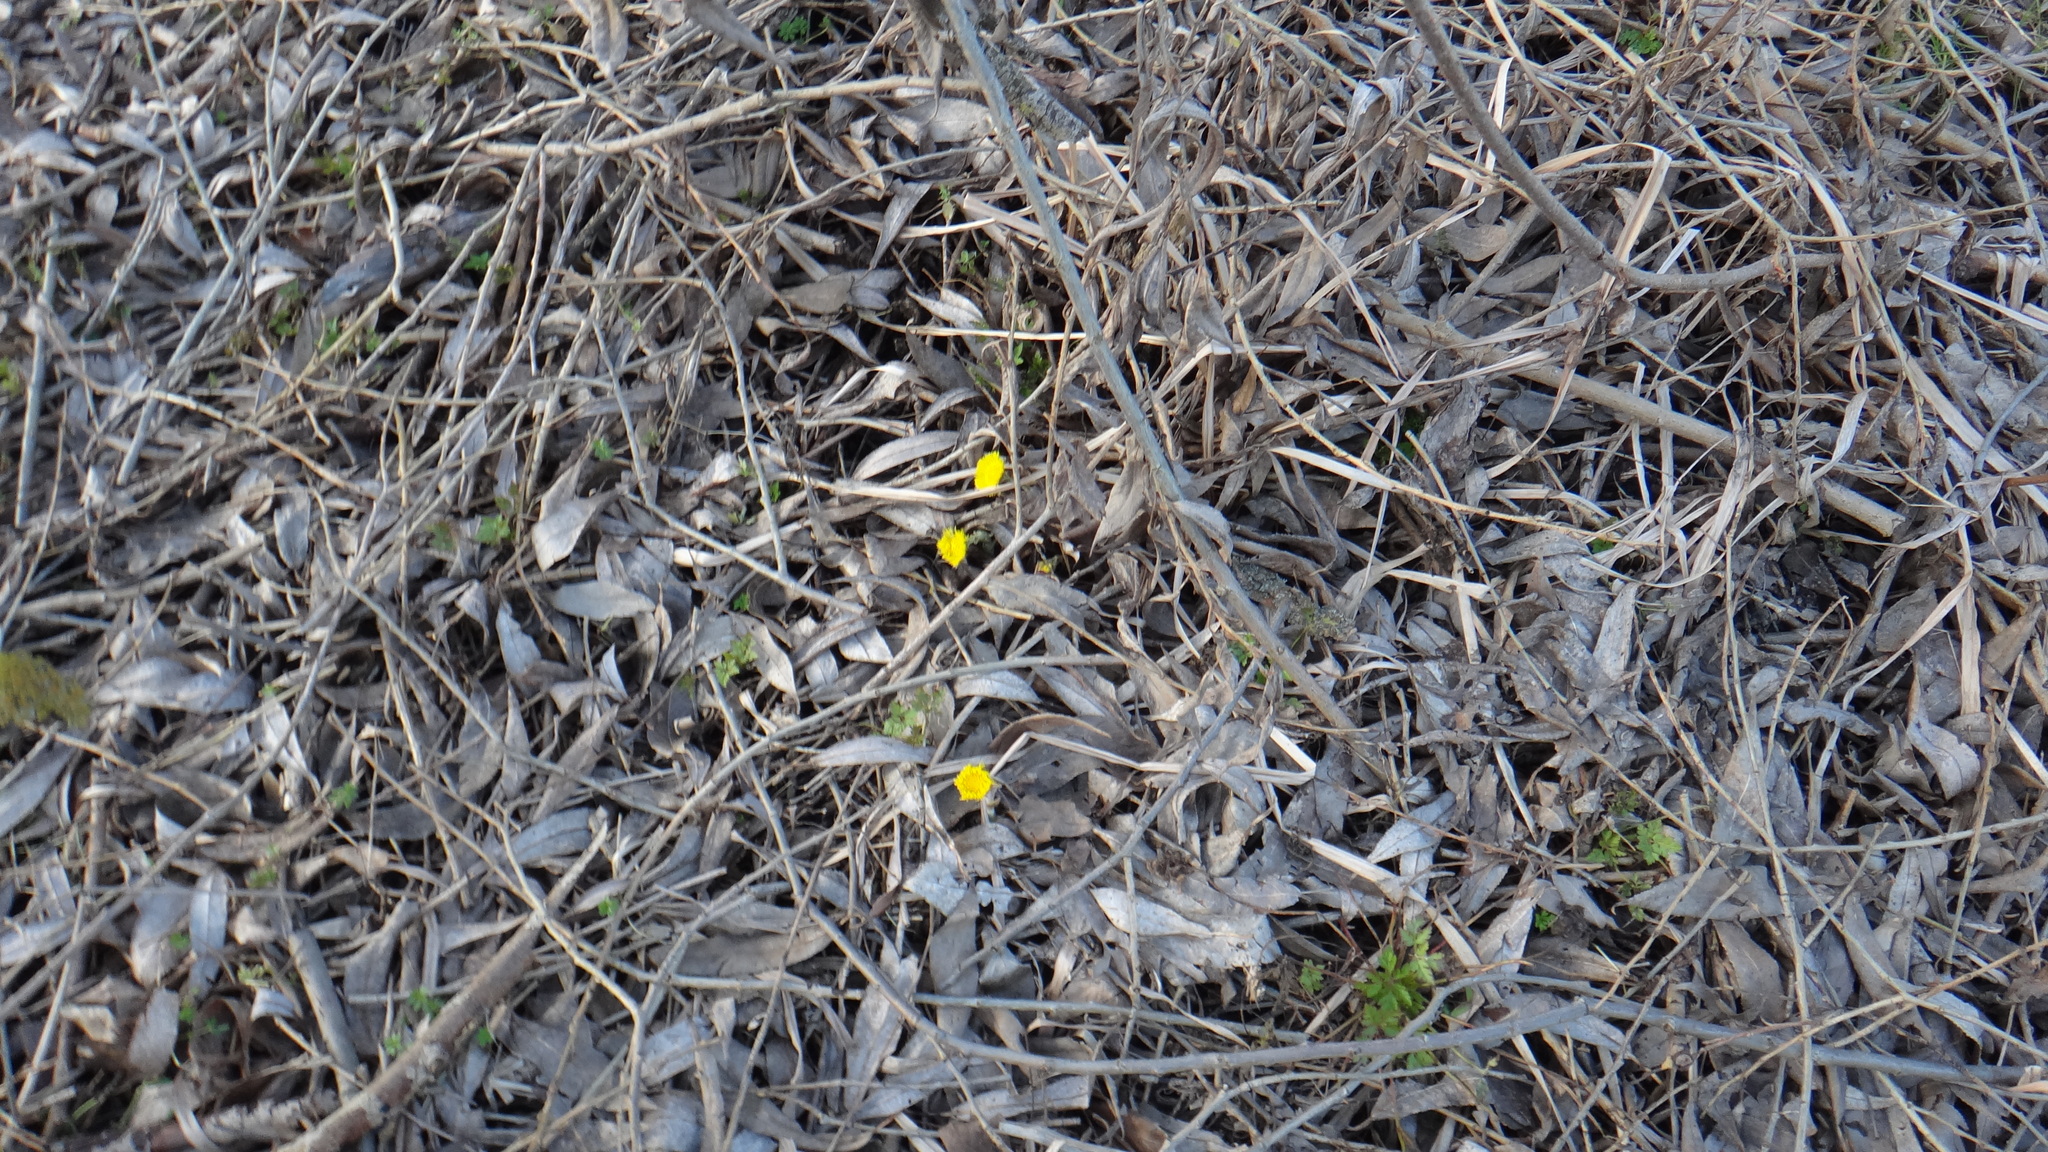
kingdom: Plantae
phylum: Tracheophyta
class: Magnoliopsida
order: Asterales
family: Asteraceae
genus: Tussilago
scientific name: Tussilago farfara
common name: Coltsfoot
